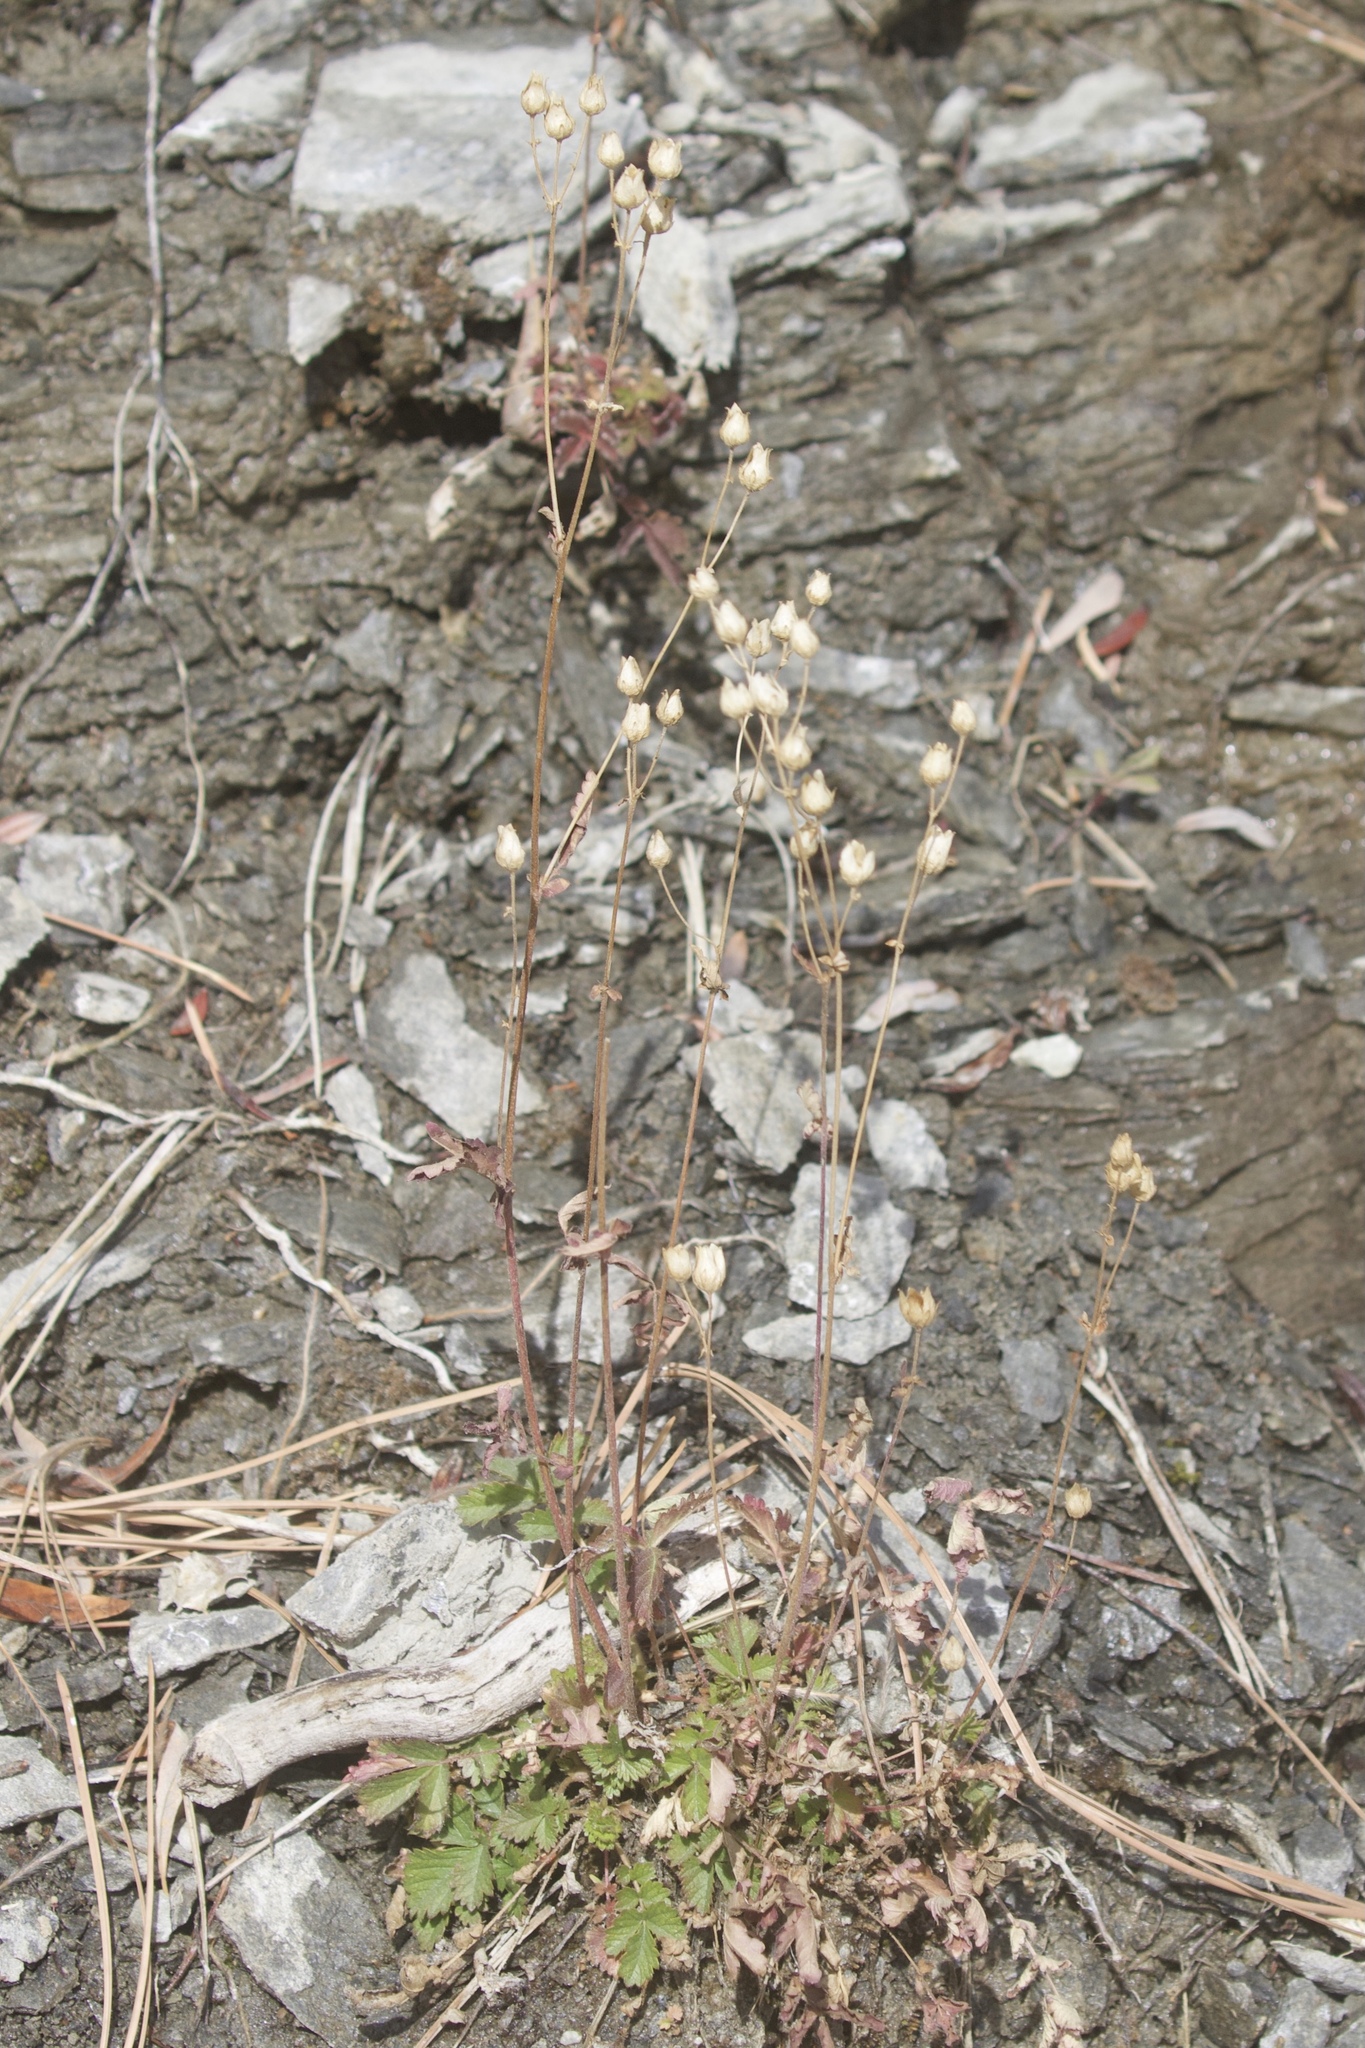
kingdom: Plantae
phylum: Tracheophyta
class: Magnoliopsida
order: Rosales
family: Rosaceae
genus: Drymocallis
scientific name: Drymocallis glandulosa
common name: Sticky cinquefoil
